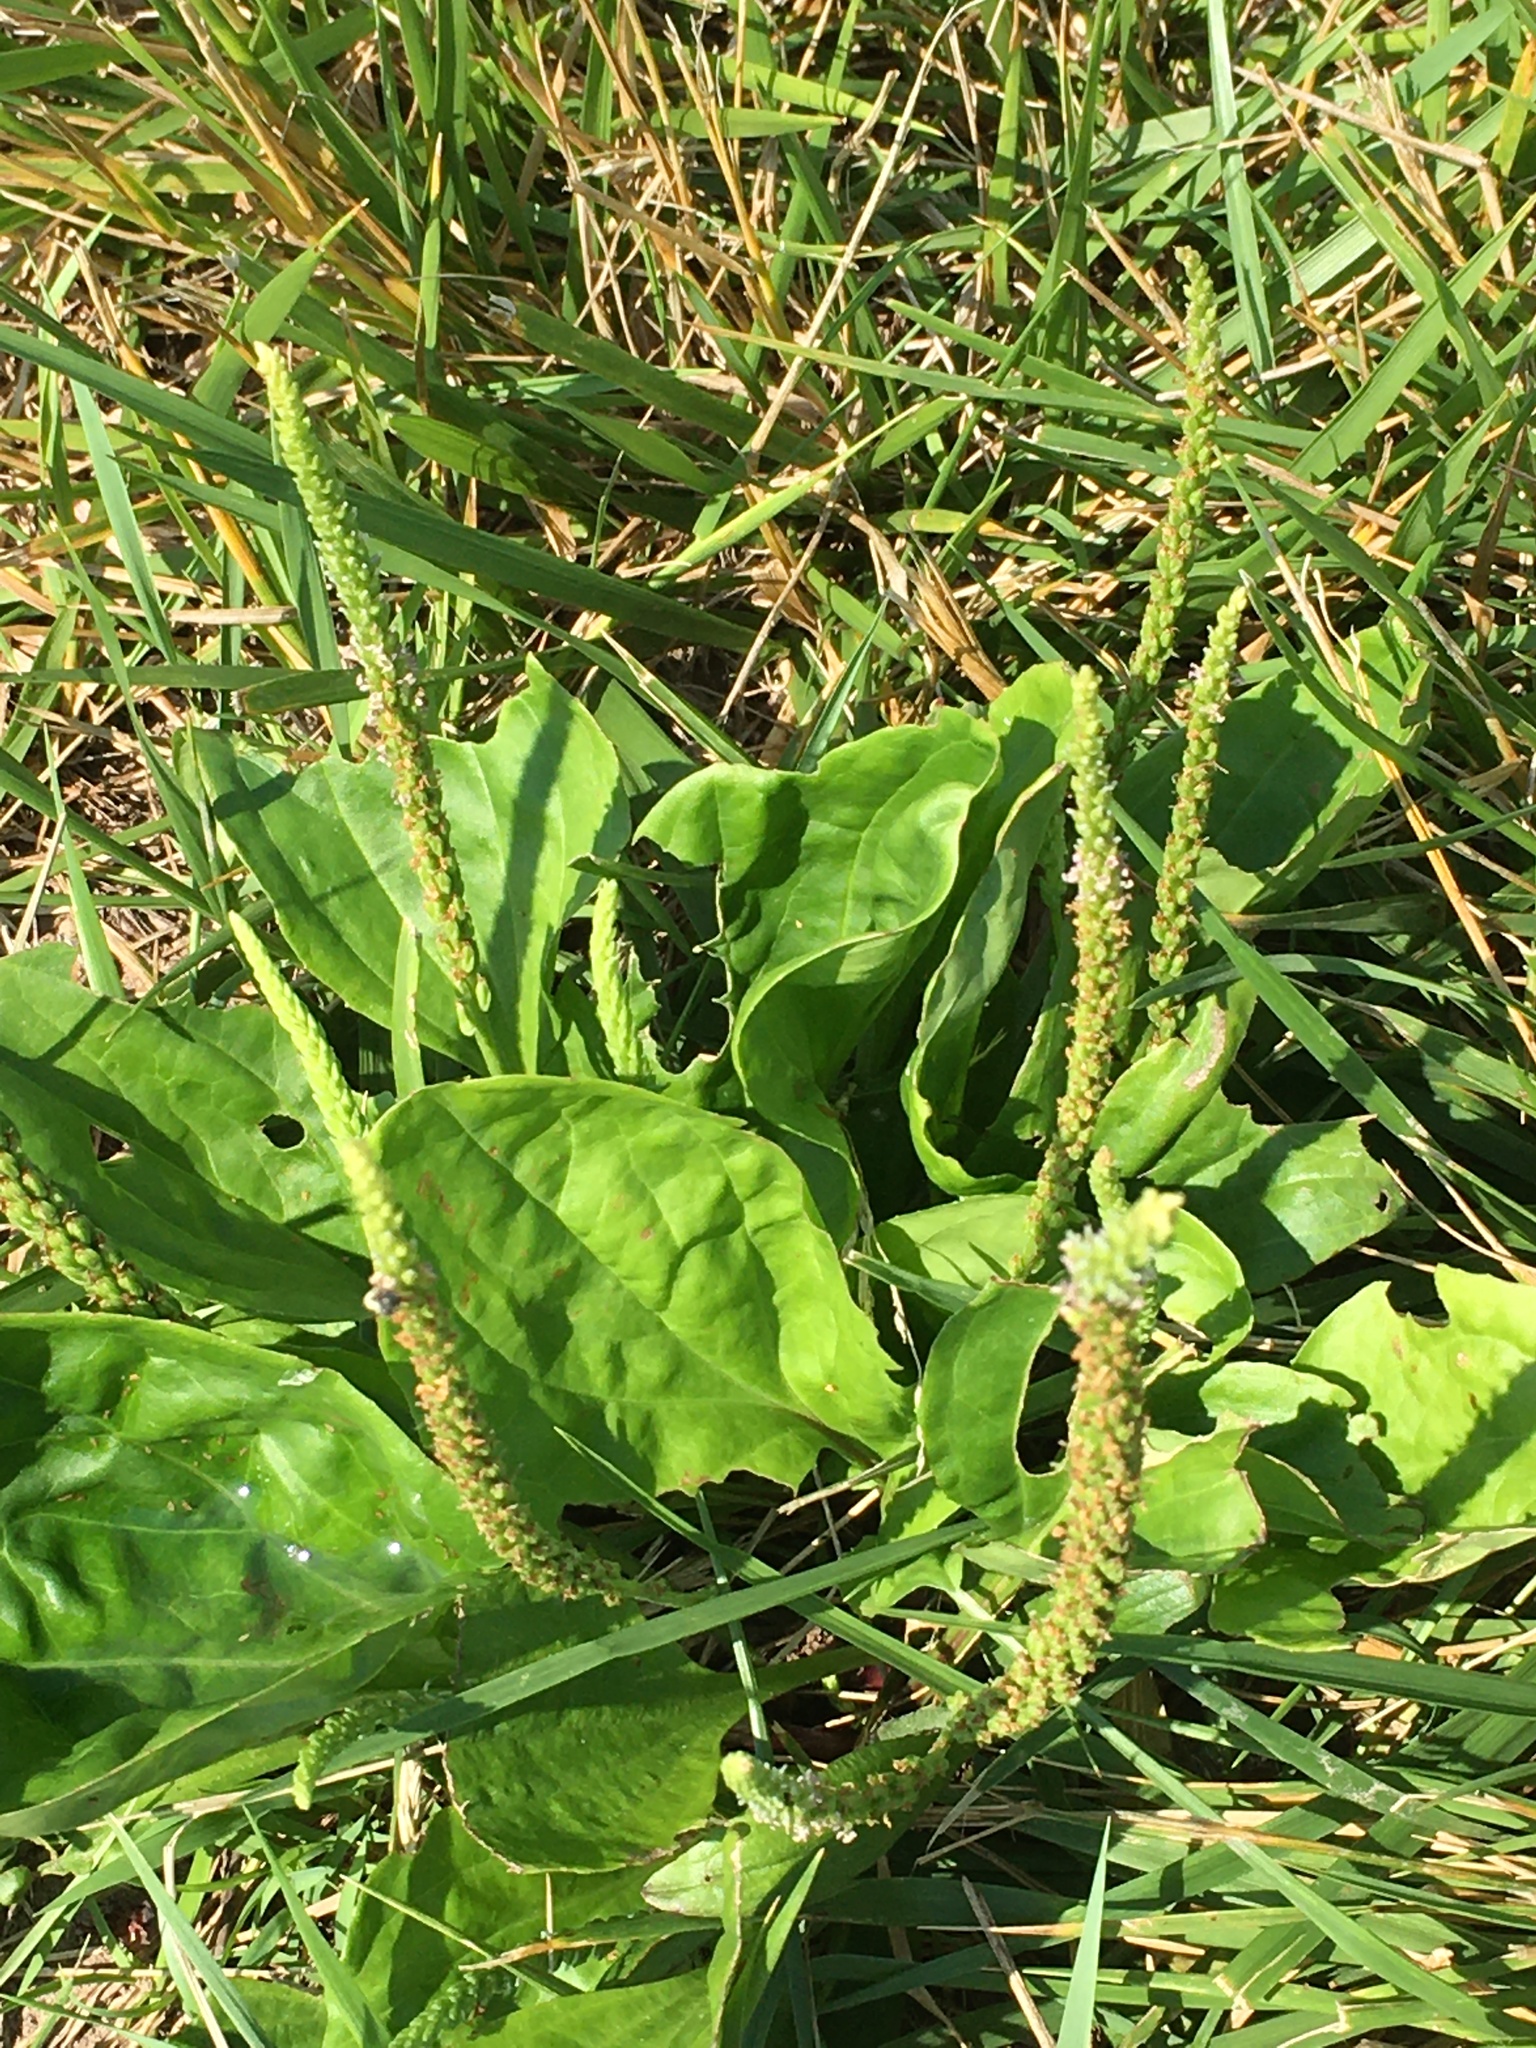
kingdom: Plantae
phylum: Tracheophyta
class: Magnoliopsida
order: Lamiales
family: Plantaginaceae
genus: Plantago
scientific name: Plantago major
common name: Common plantain
